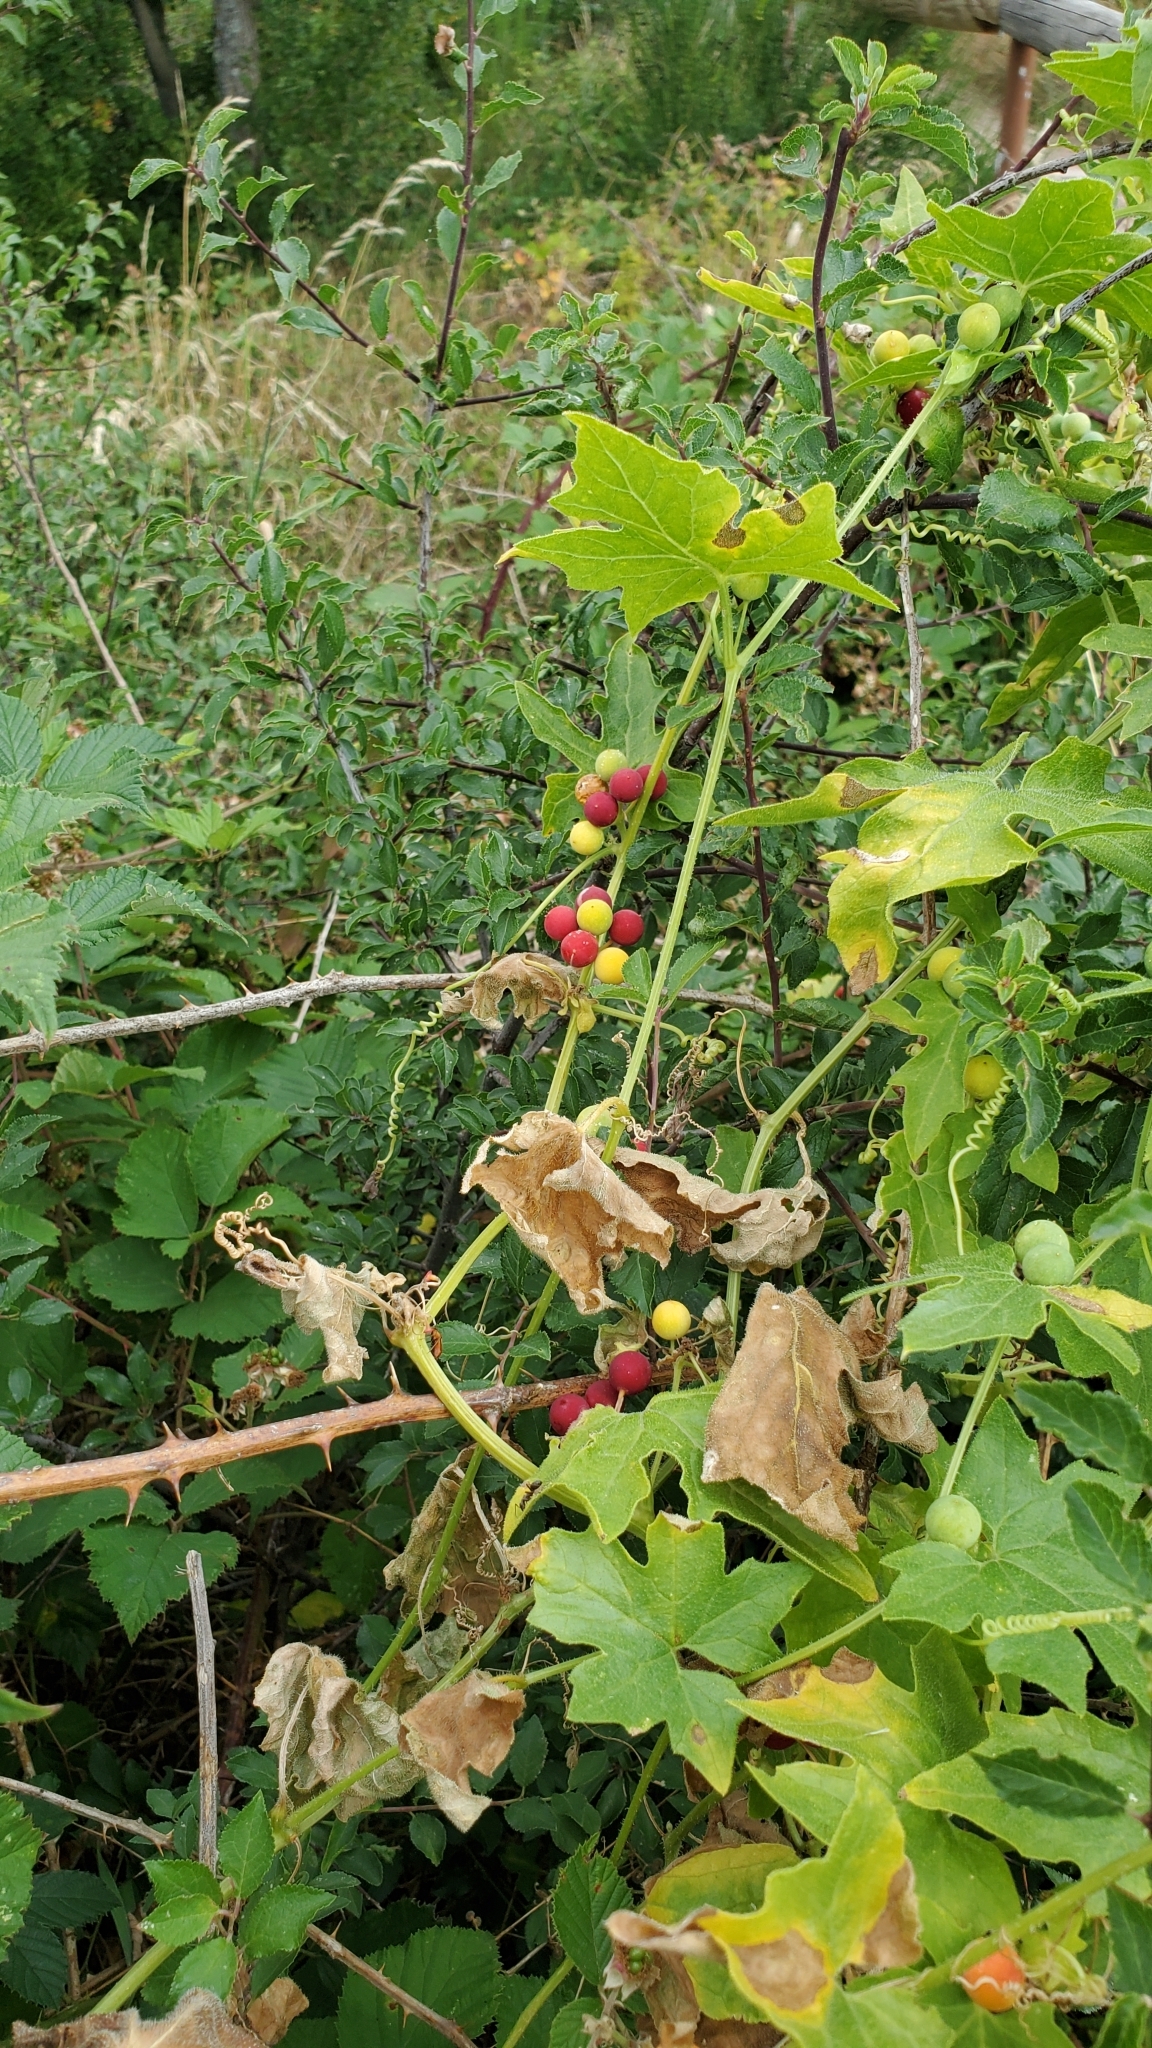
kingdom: Plantae
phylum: Tracheophyta
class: Magnoliopsida
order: Cucurbitales
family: Cucurbitaceae
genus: Bryonia
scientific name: Bryonia dioica
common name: White bryony
